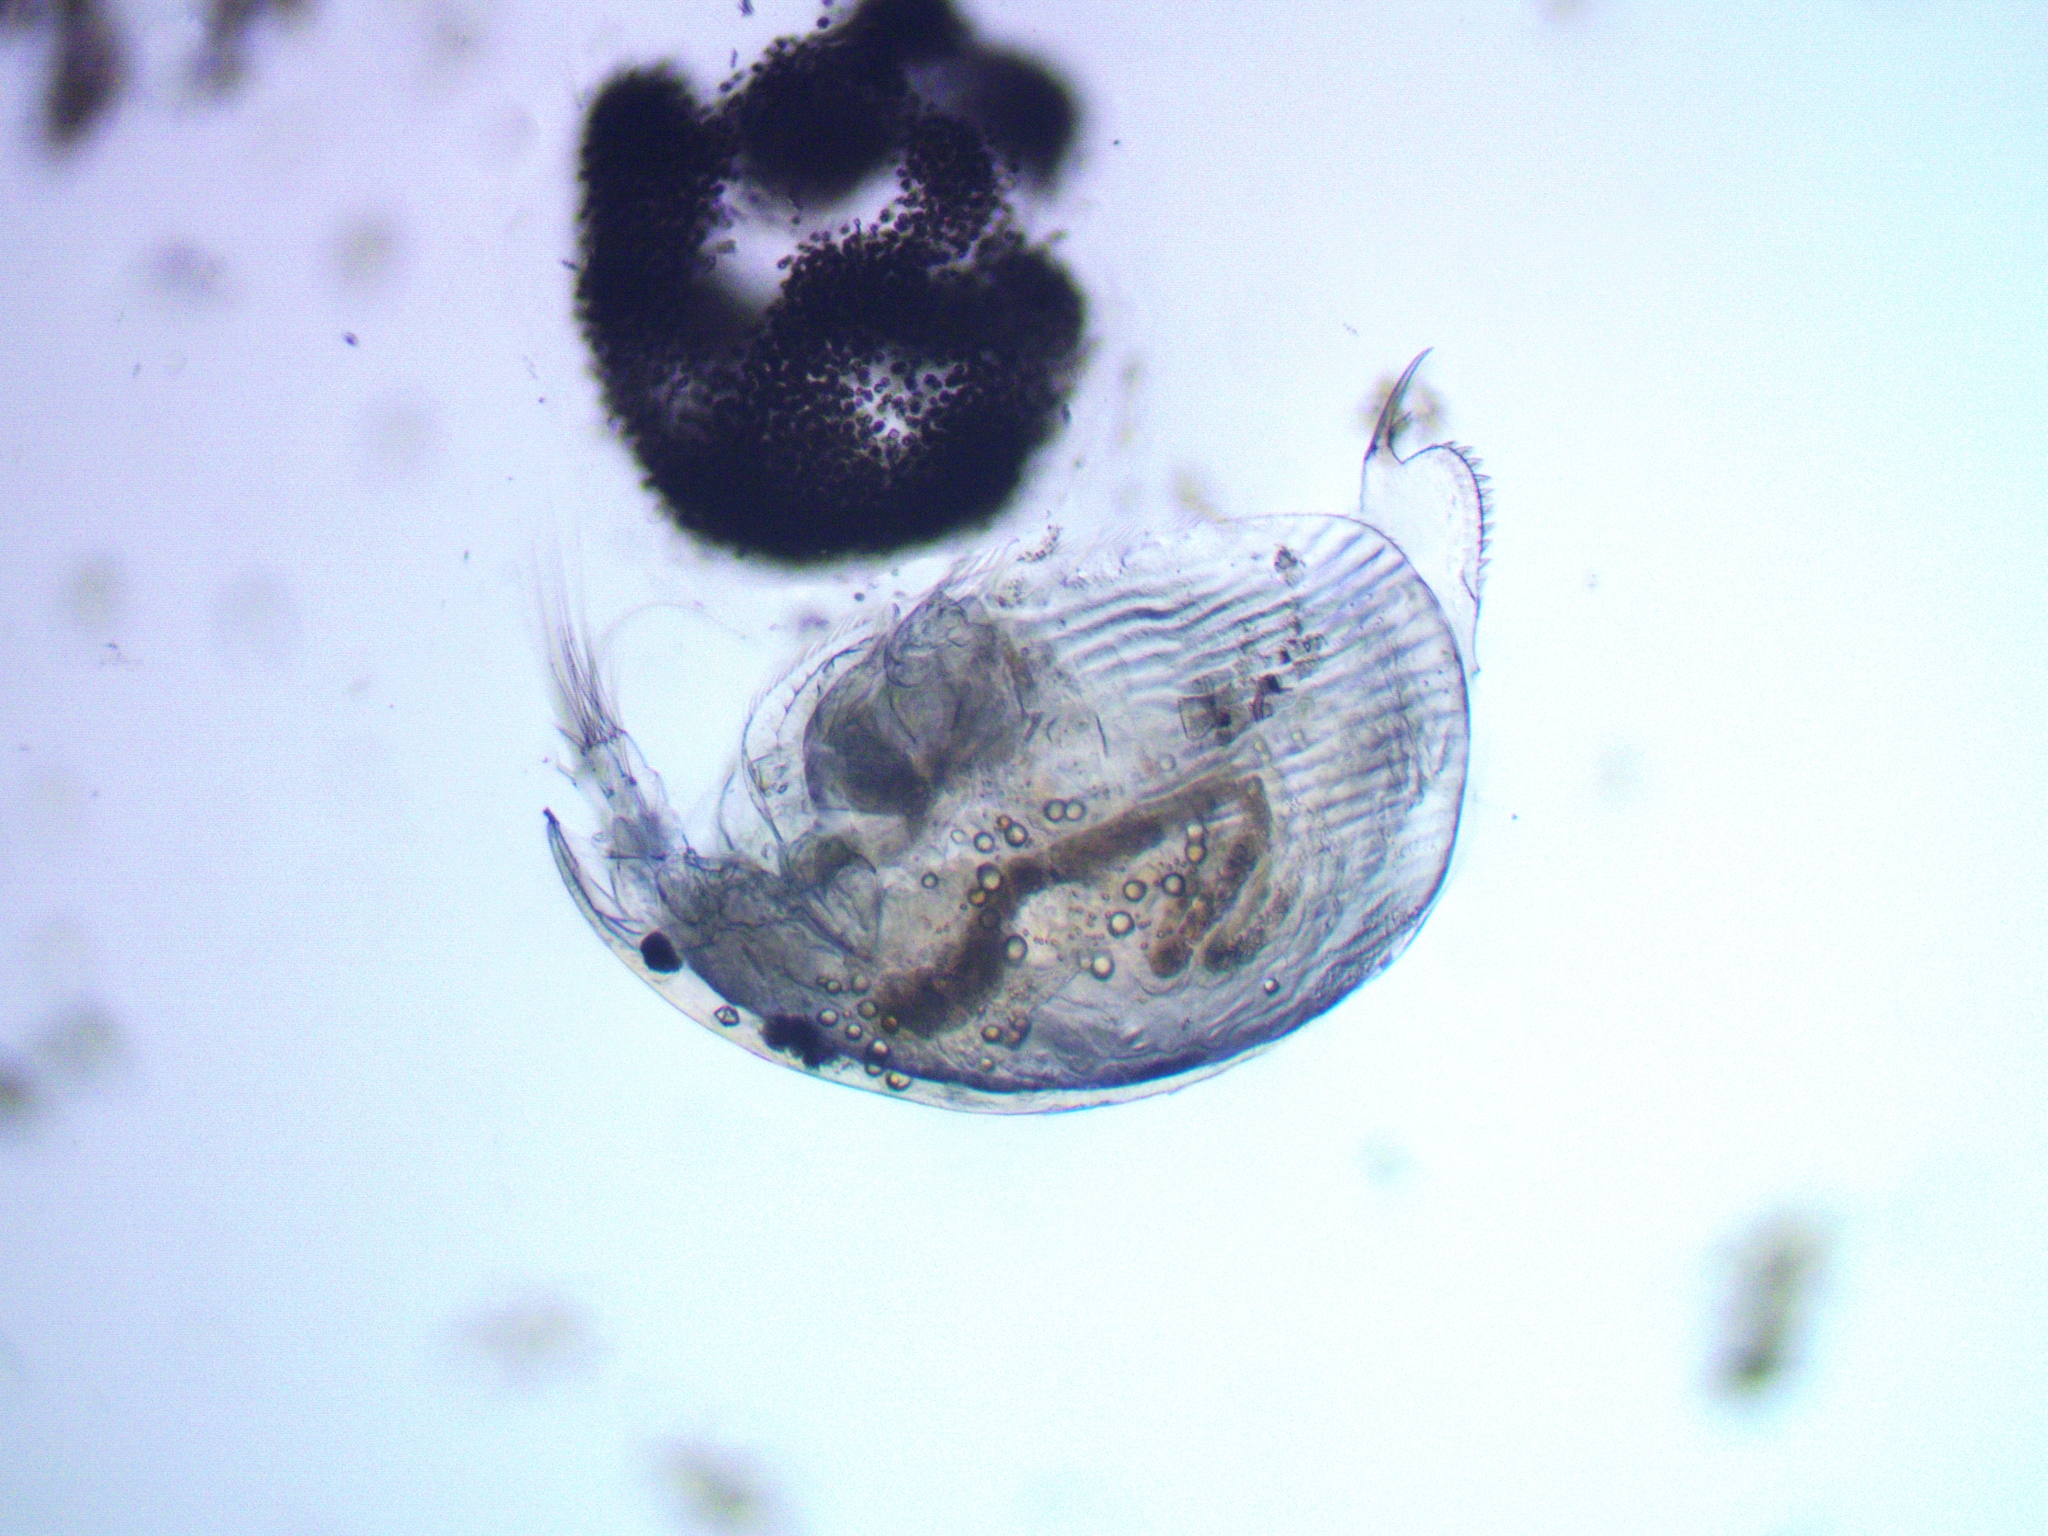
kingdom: Animalia
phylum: Arthropoda
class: Branchiopoda
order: Diplostraca
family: Chydoridae
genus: Alona
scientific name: Alona affinis
